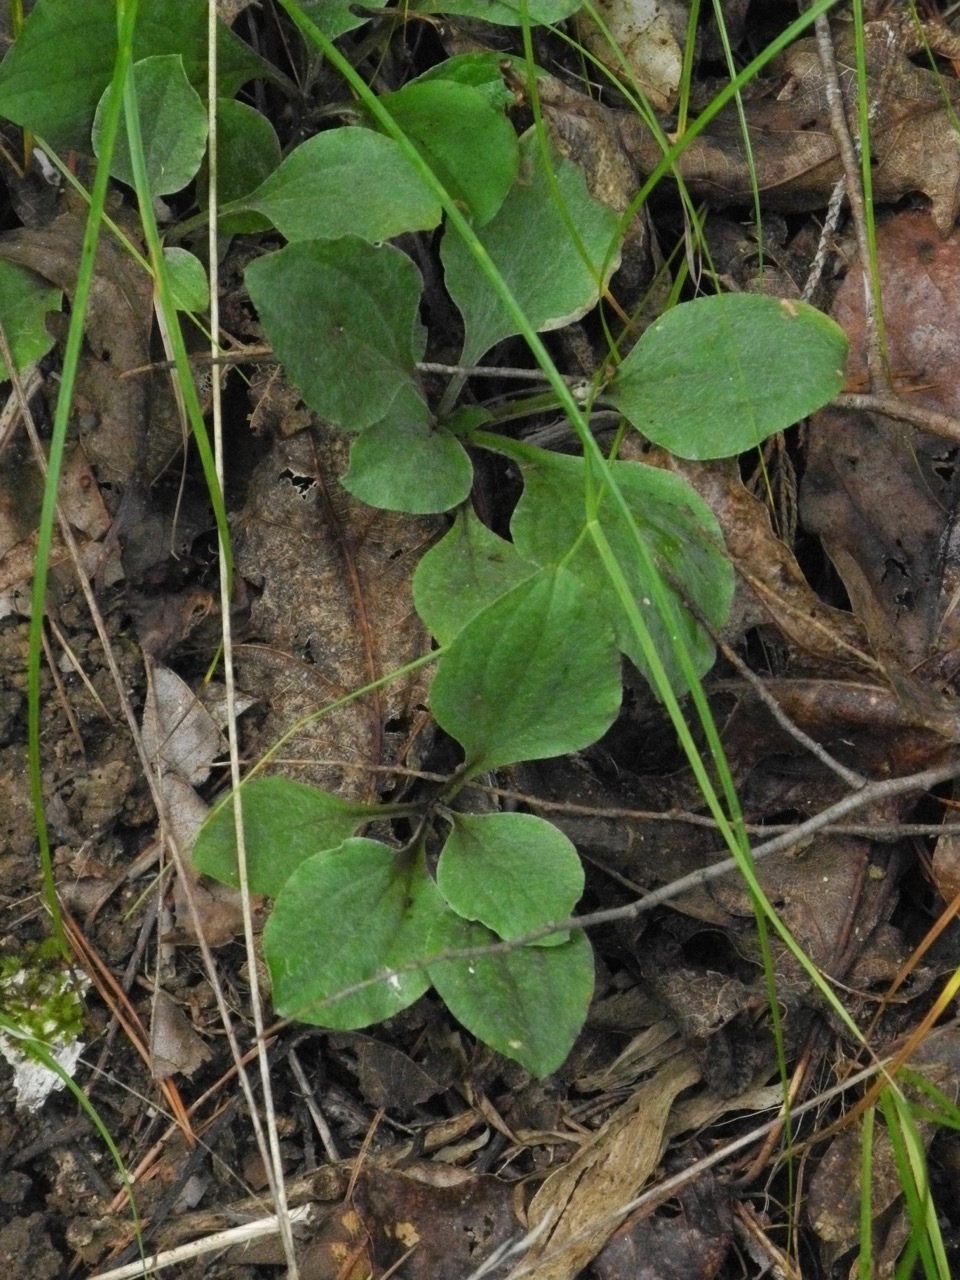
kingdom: Plantae
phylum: Tracheophyta
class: Magnoliopsida
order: Asterales
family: Asteraceae
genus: Antennaria
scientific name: Antennaria plantaginifolia
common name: Plantain-leaved pussytoes
